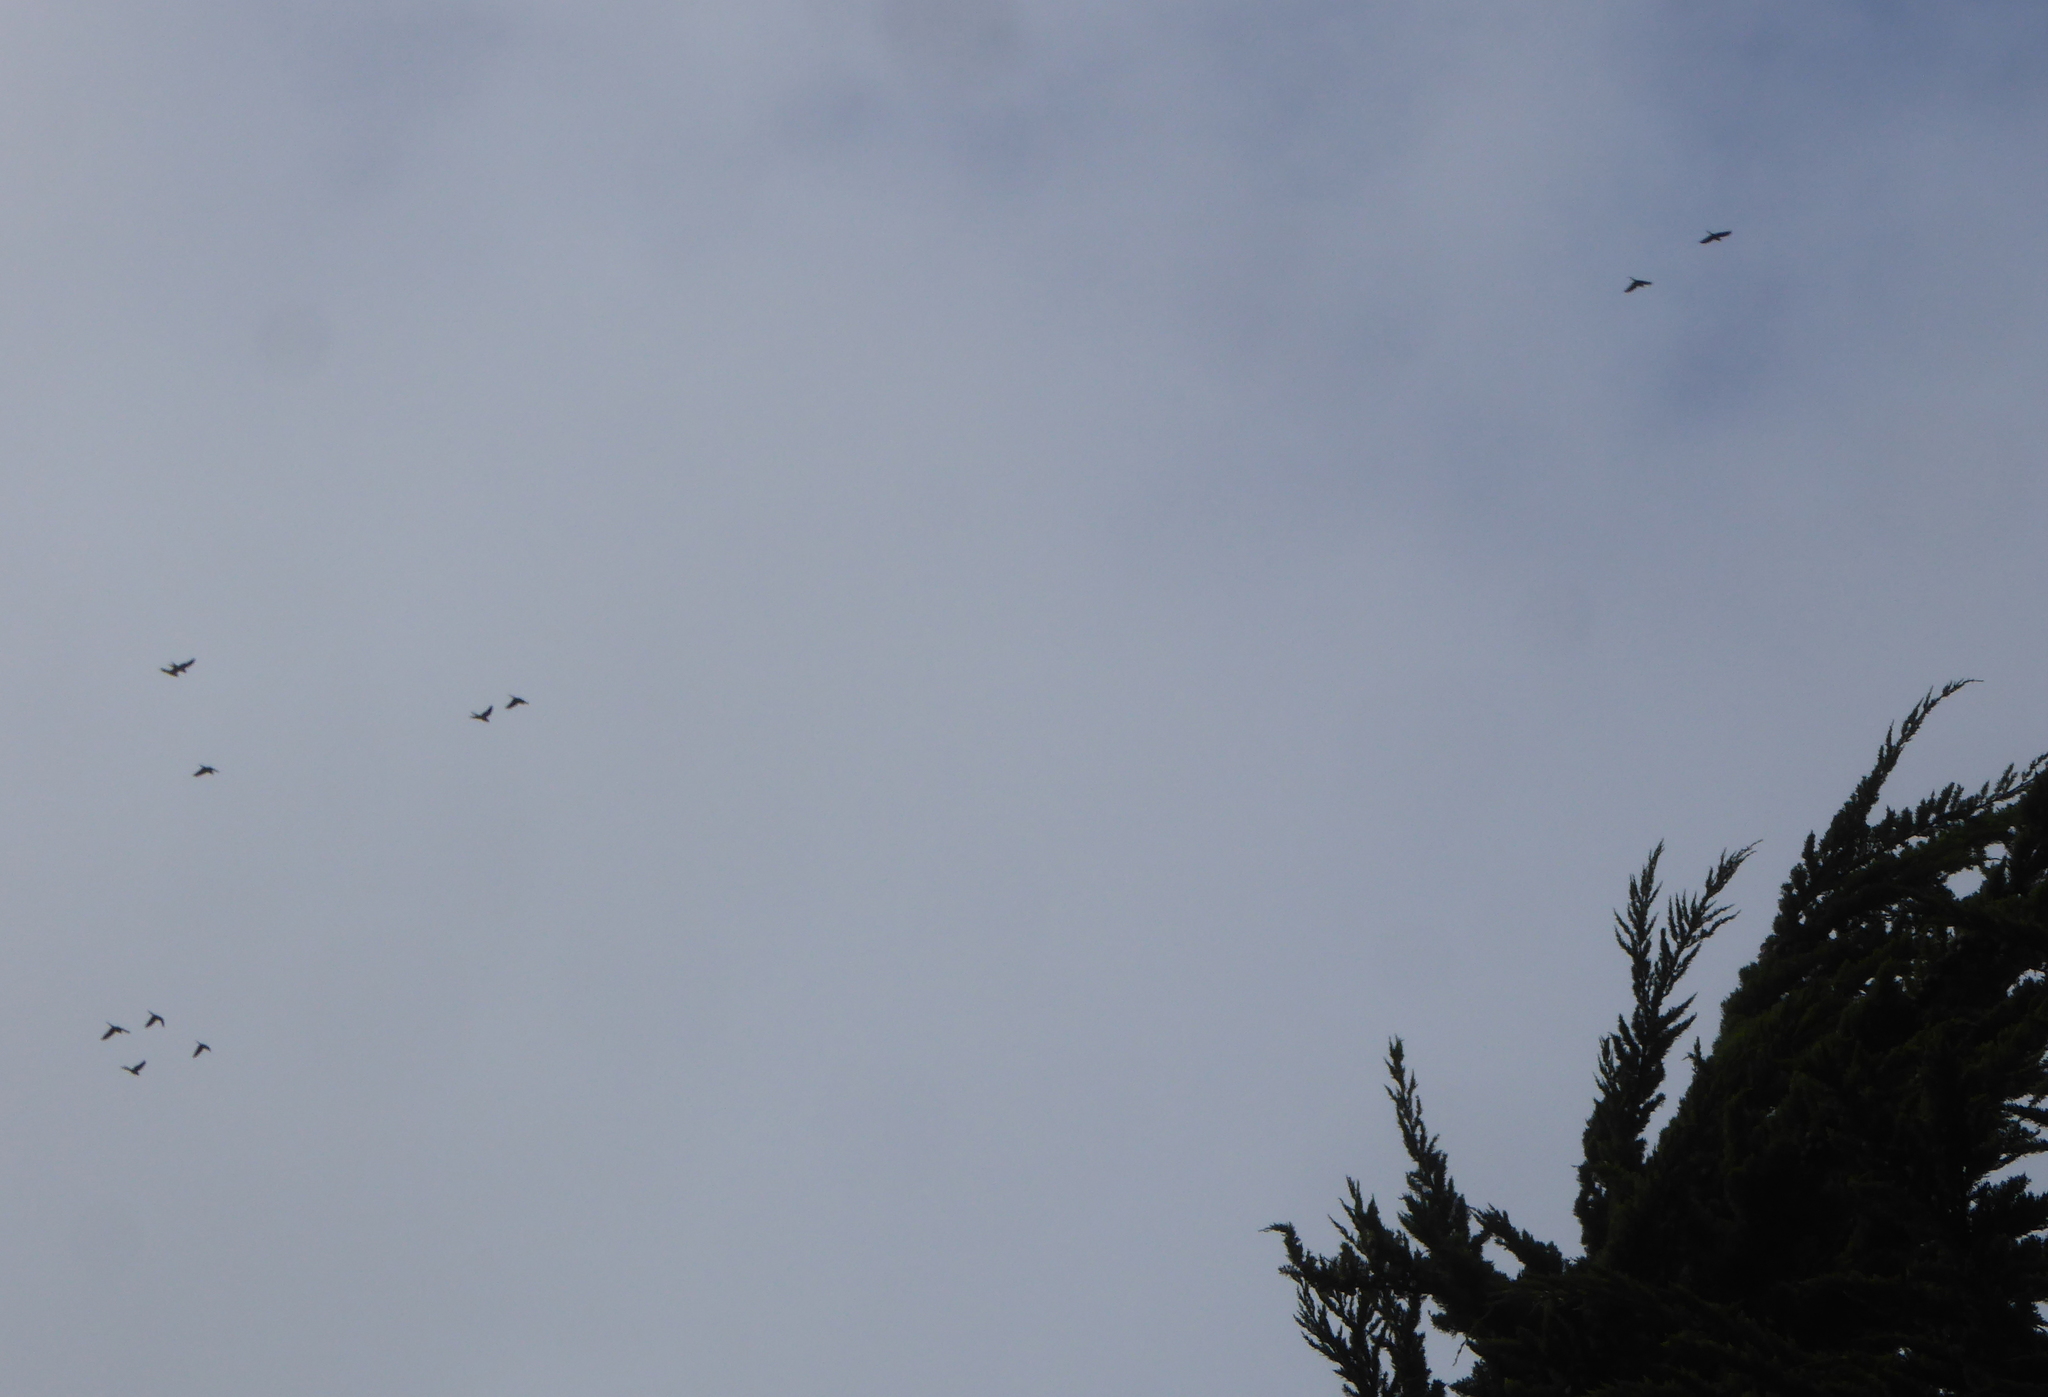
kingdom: Animalia
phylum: Chordata
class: Aves
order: Psittaciformes
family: Psittacidae
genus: Aratinga
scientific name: Aratinga erythrogenys
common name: Red-masked parakeet
